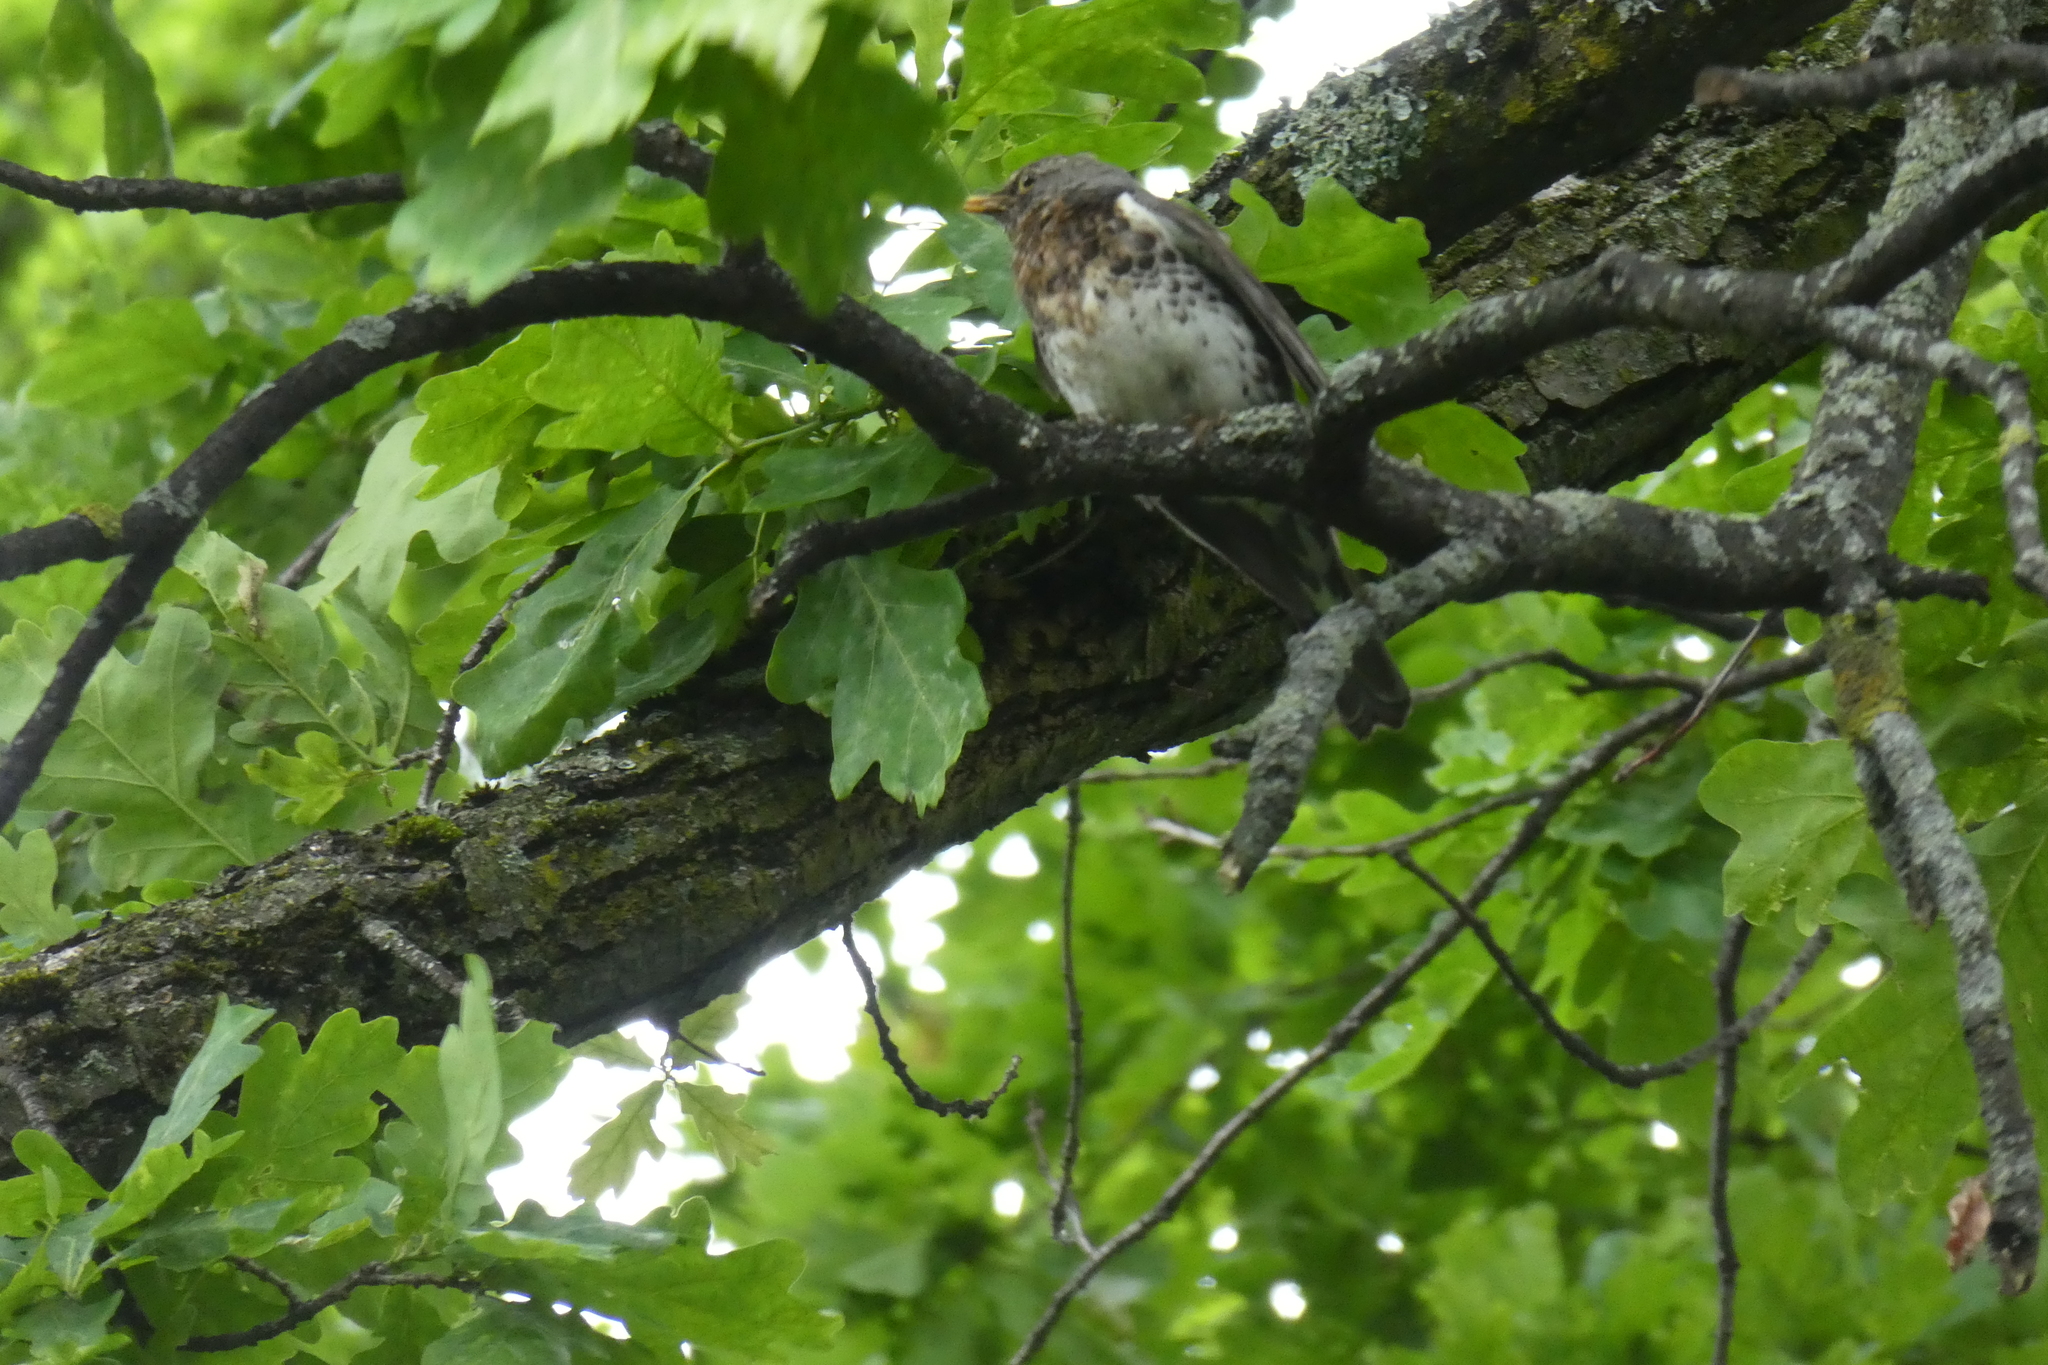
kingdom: Animalia
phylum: Chordata
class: Aves
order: Passeriformes
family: Turdidae
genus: Turdus
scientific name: Turdus pilaris
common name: Fieldfare
